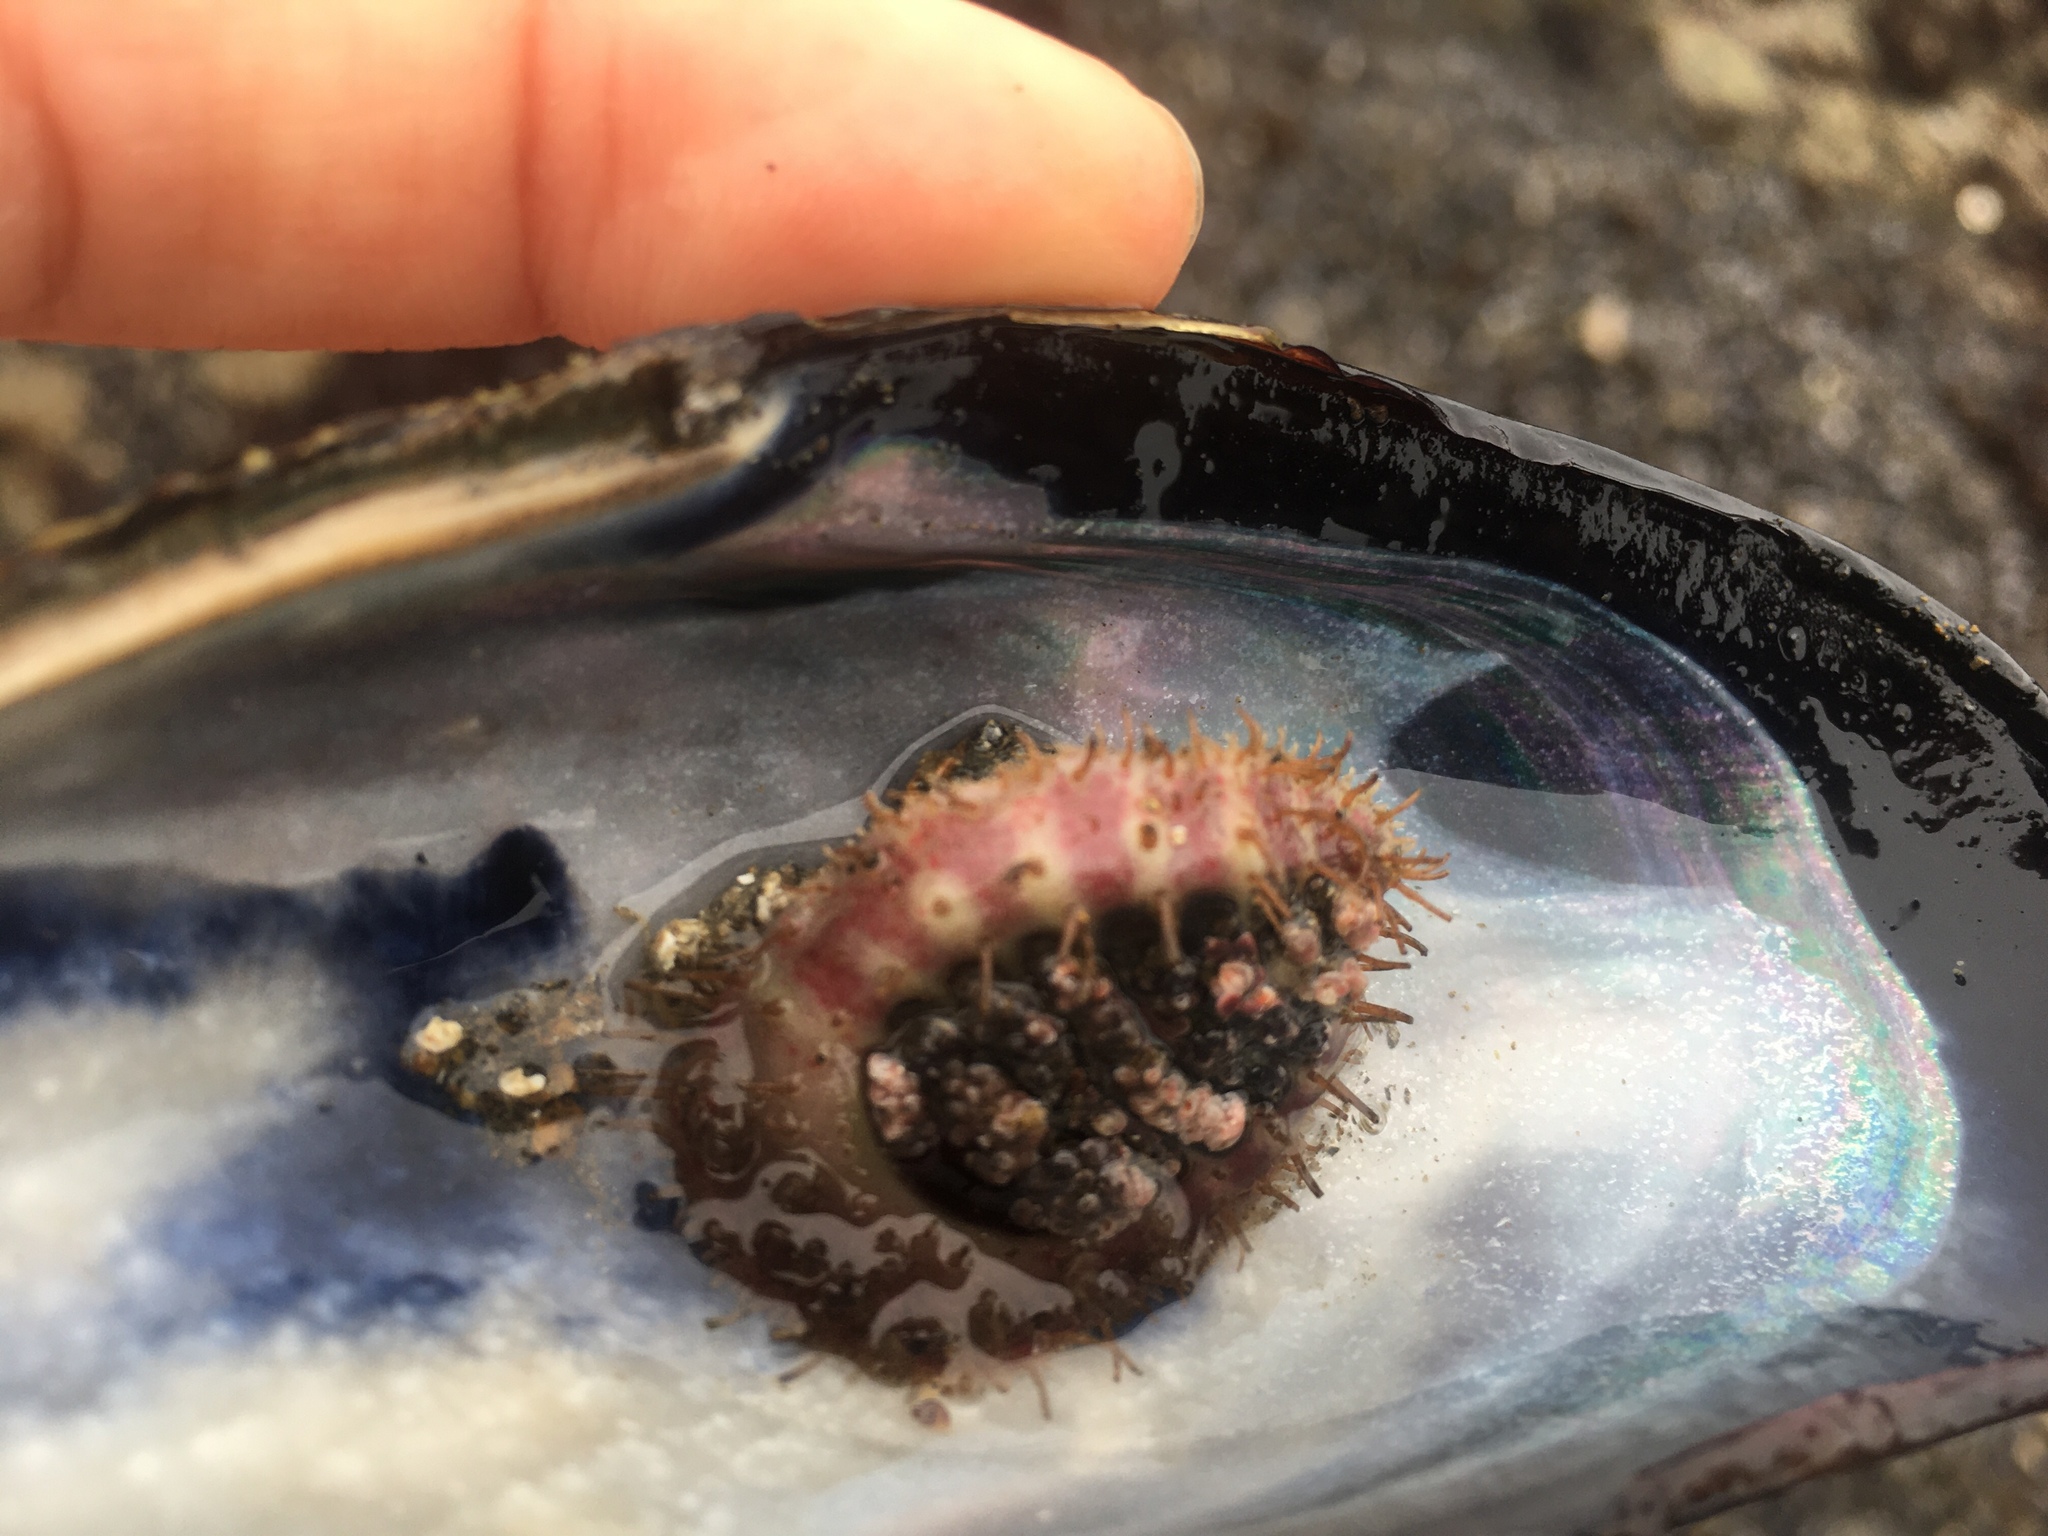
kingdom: Animalia
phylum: Mollusca
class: Polyplacophora
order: Chitonida
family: Mopaliidae
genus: Placiphorella
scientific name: Placiphorella velata
